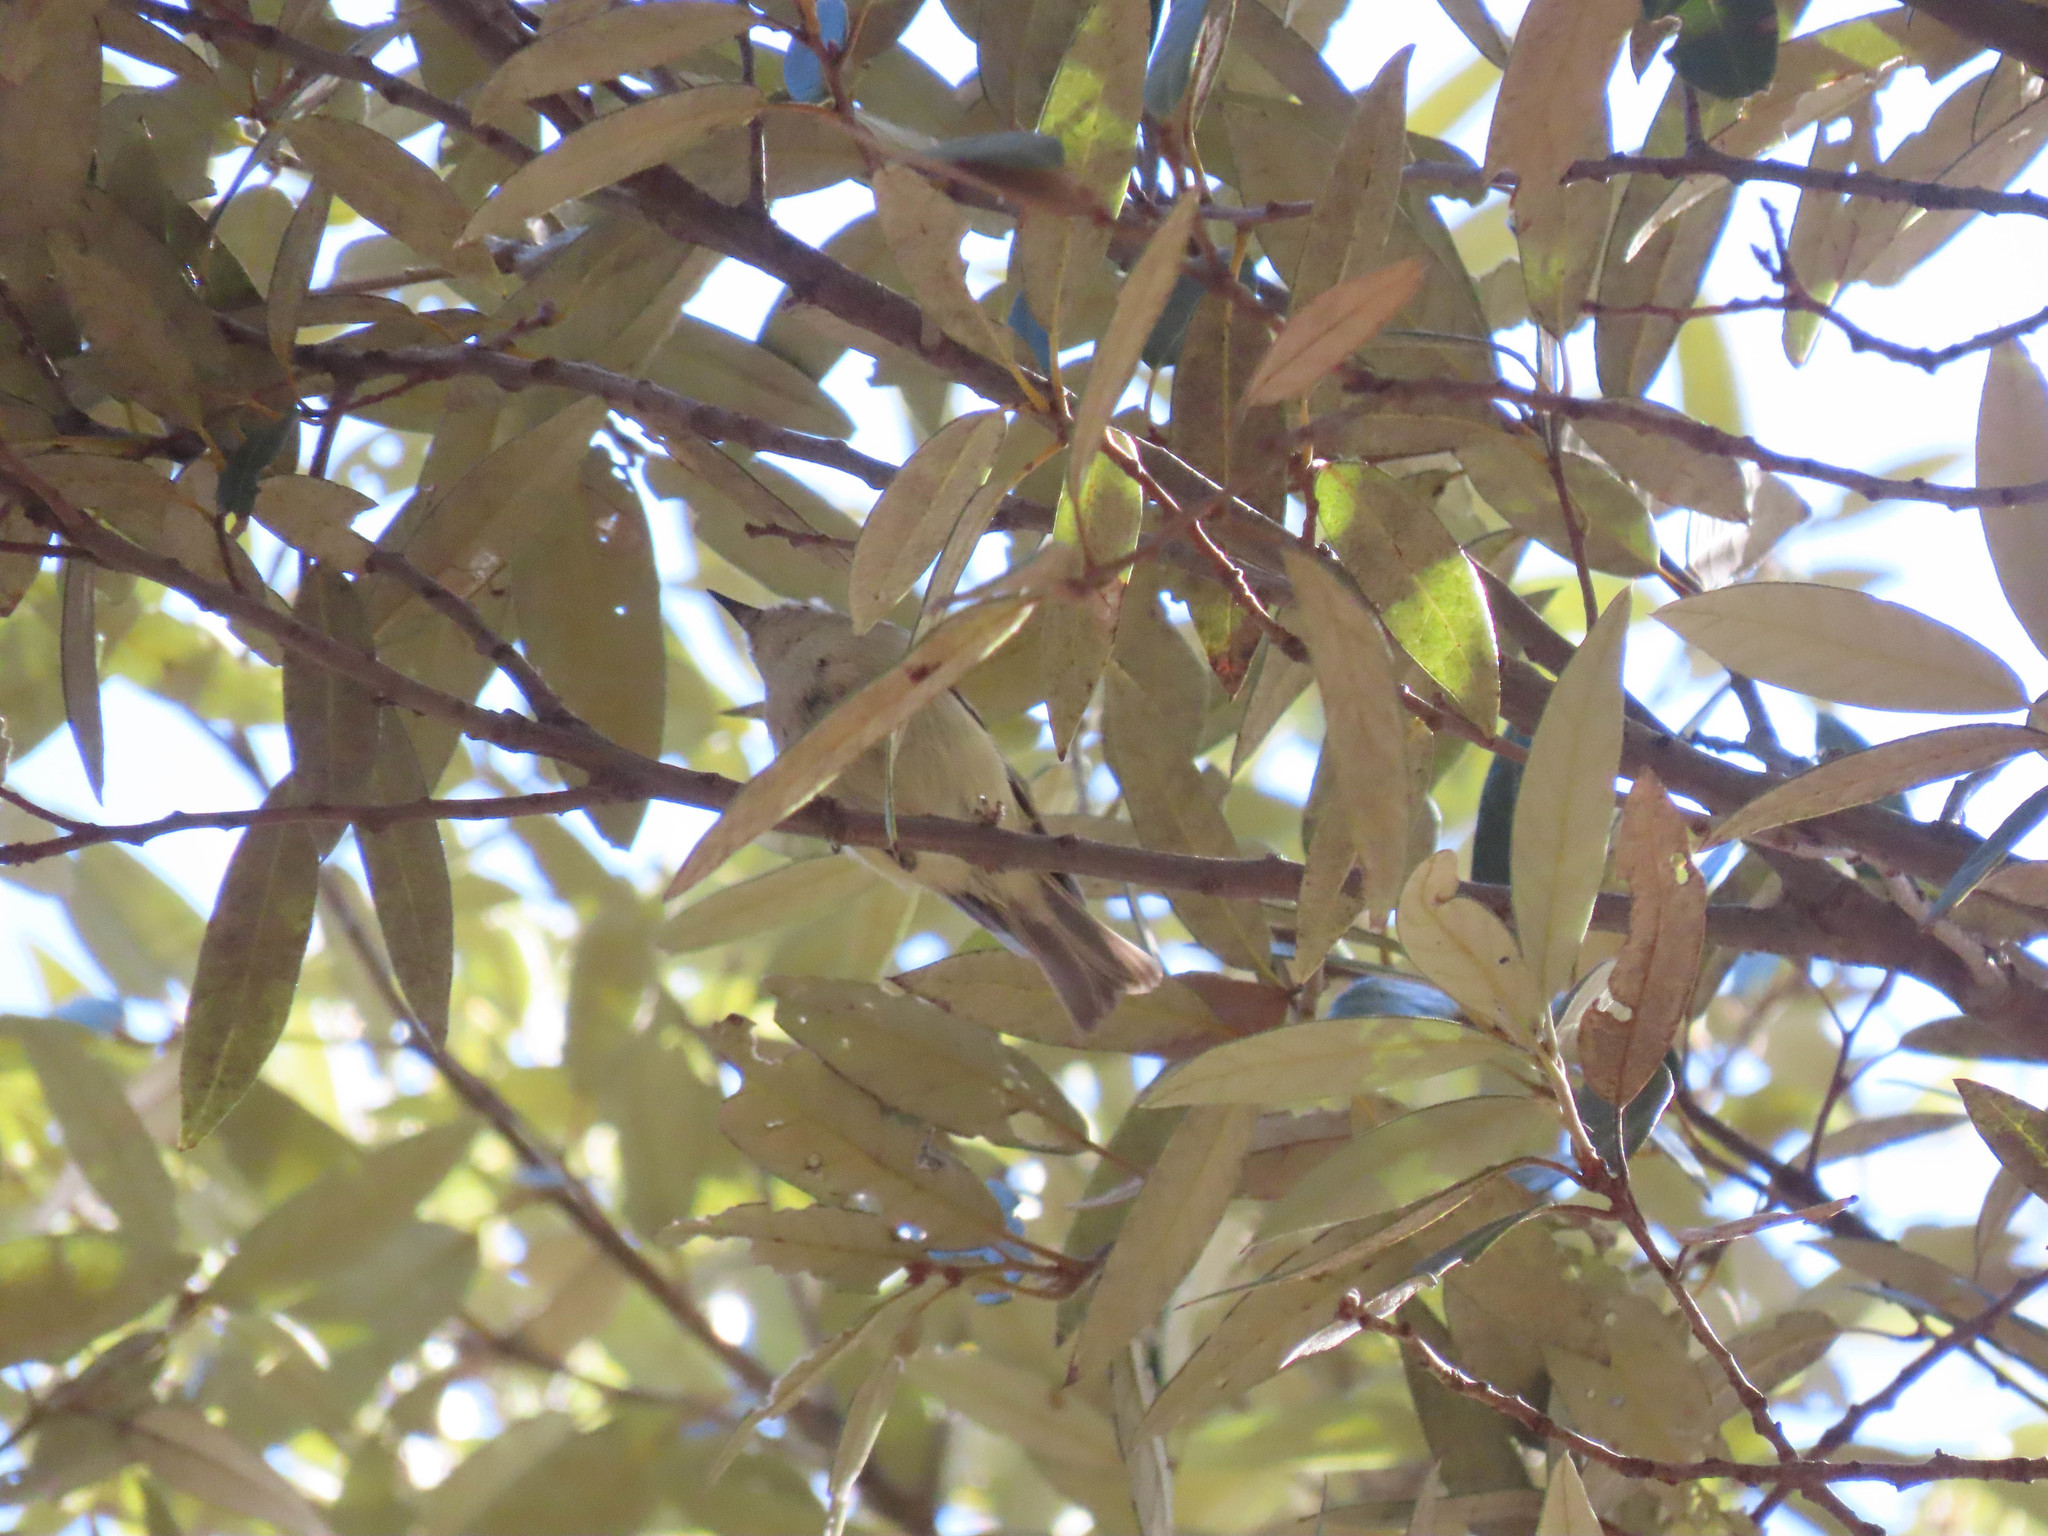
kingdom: Animalia
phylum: Chordata
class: Aves
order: Passeriformes
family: Regulidae
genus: Regulus
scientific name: Regulus calendula
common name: Ruby-crowned kinglet
